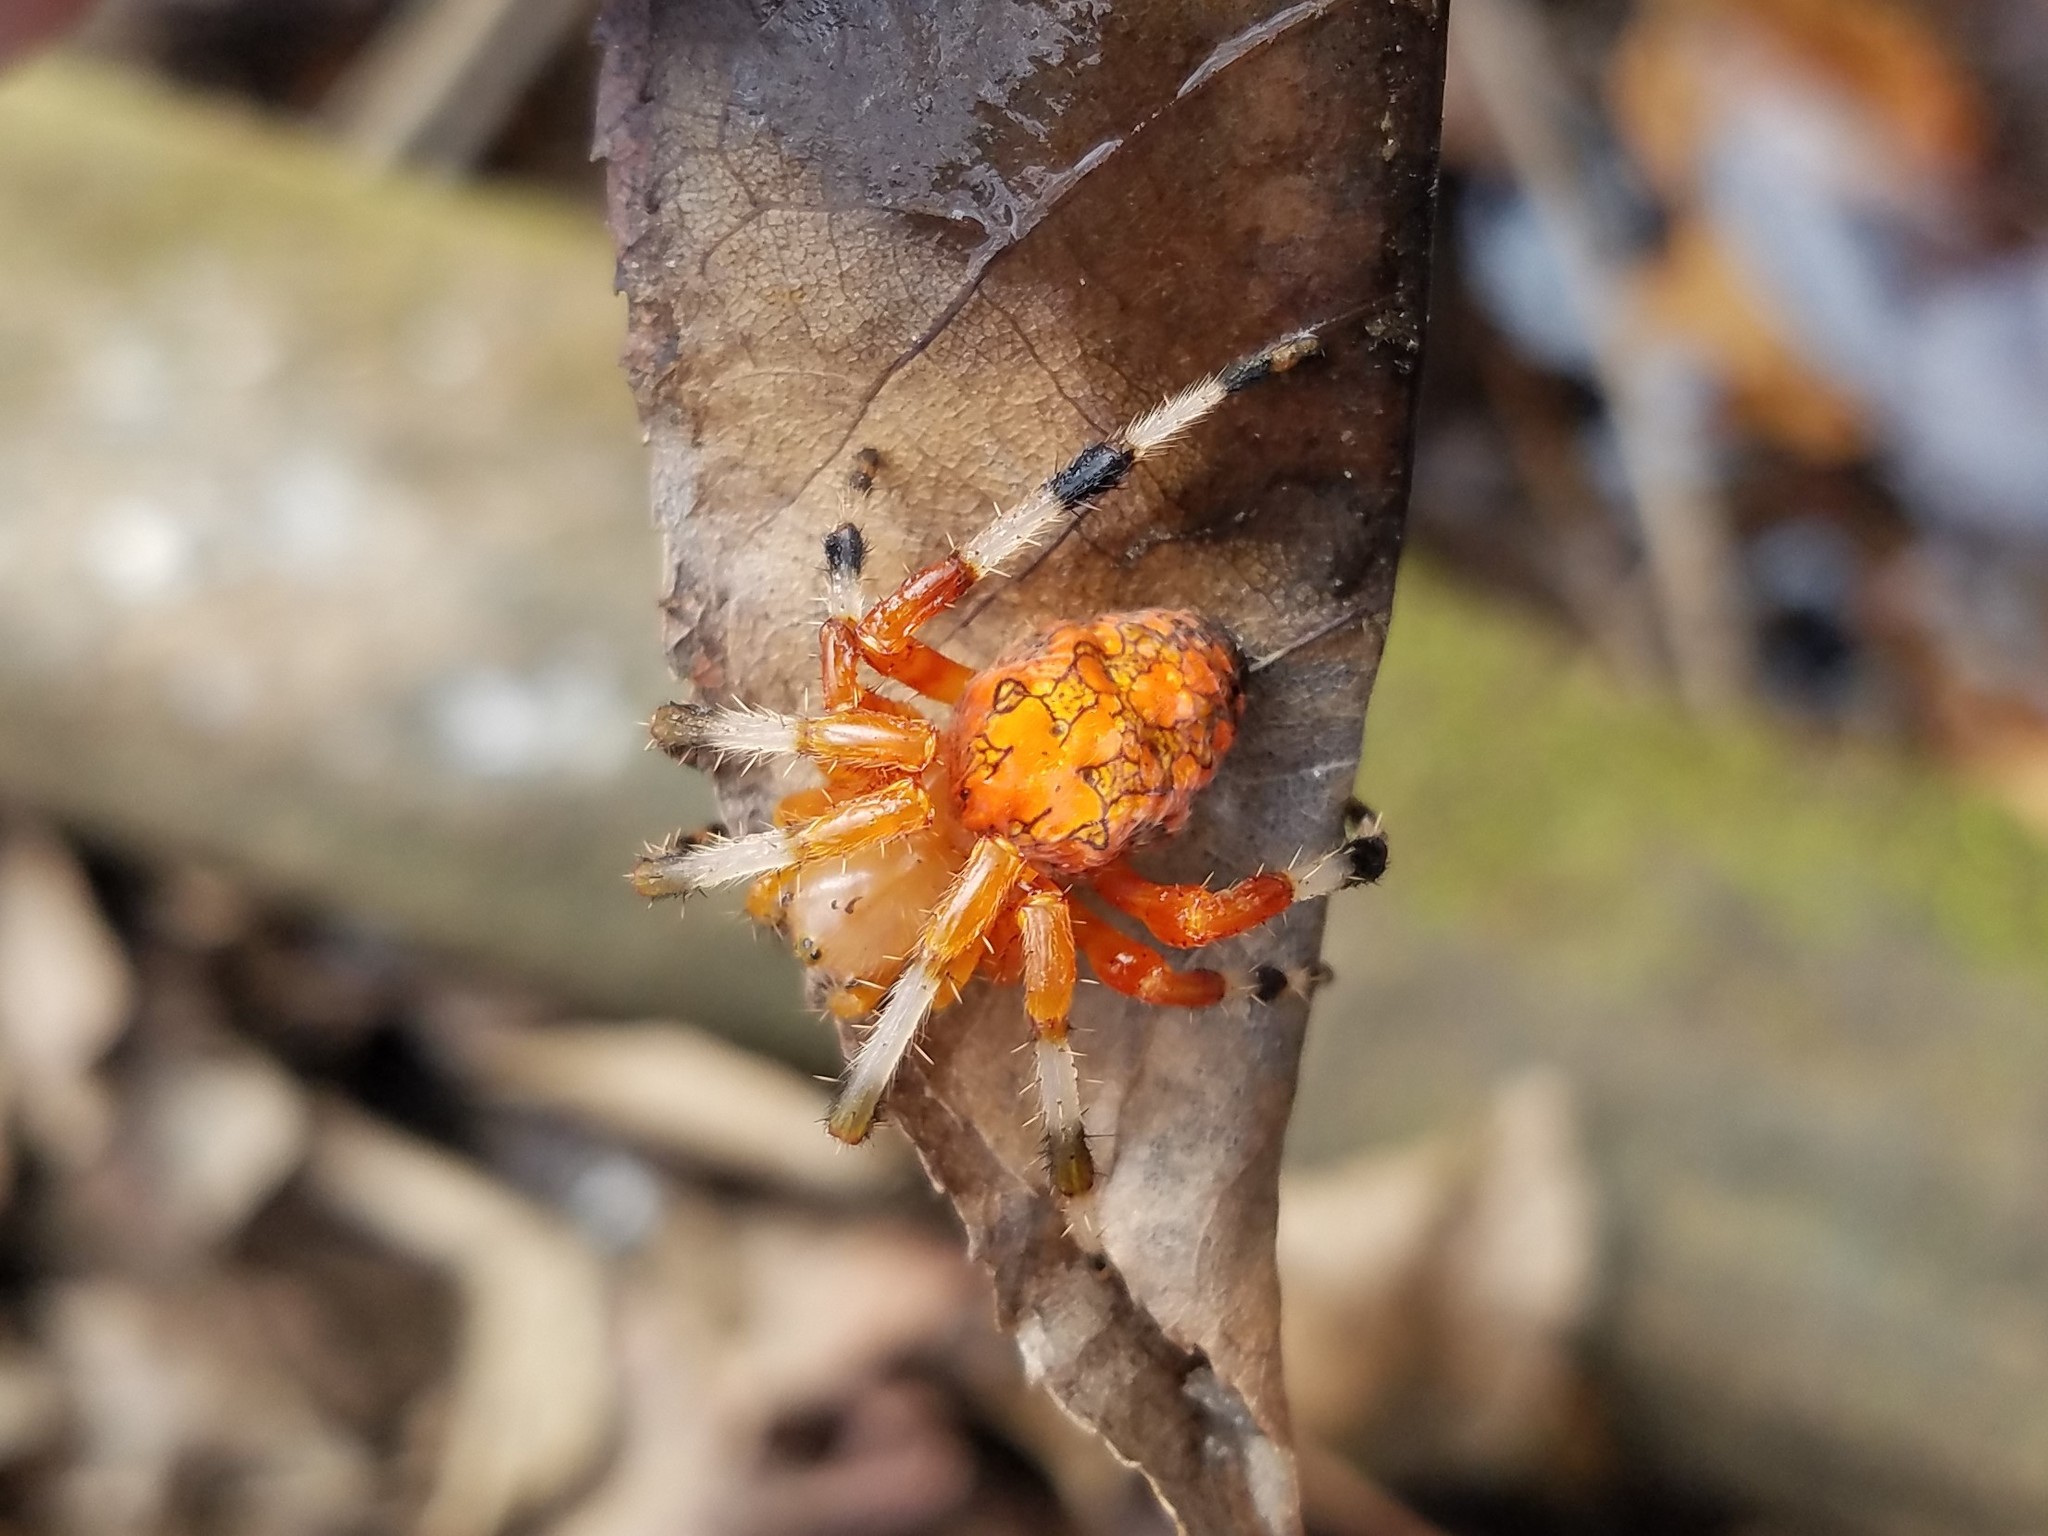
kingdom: Animalia
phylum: Arthropoda
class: Arachnida
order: Araneae
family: Araneidae
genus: Araneus
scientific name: Araneus marmoreus
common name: Marbled orbweaver
